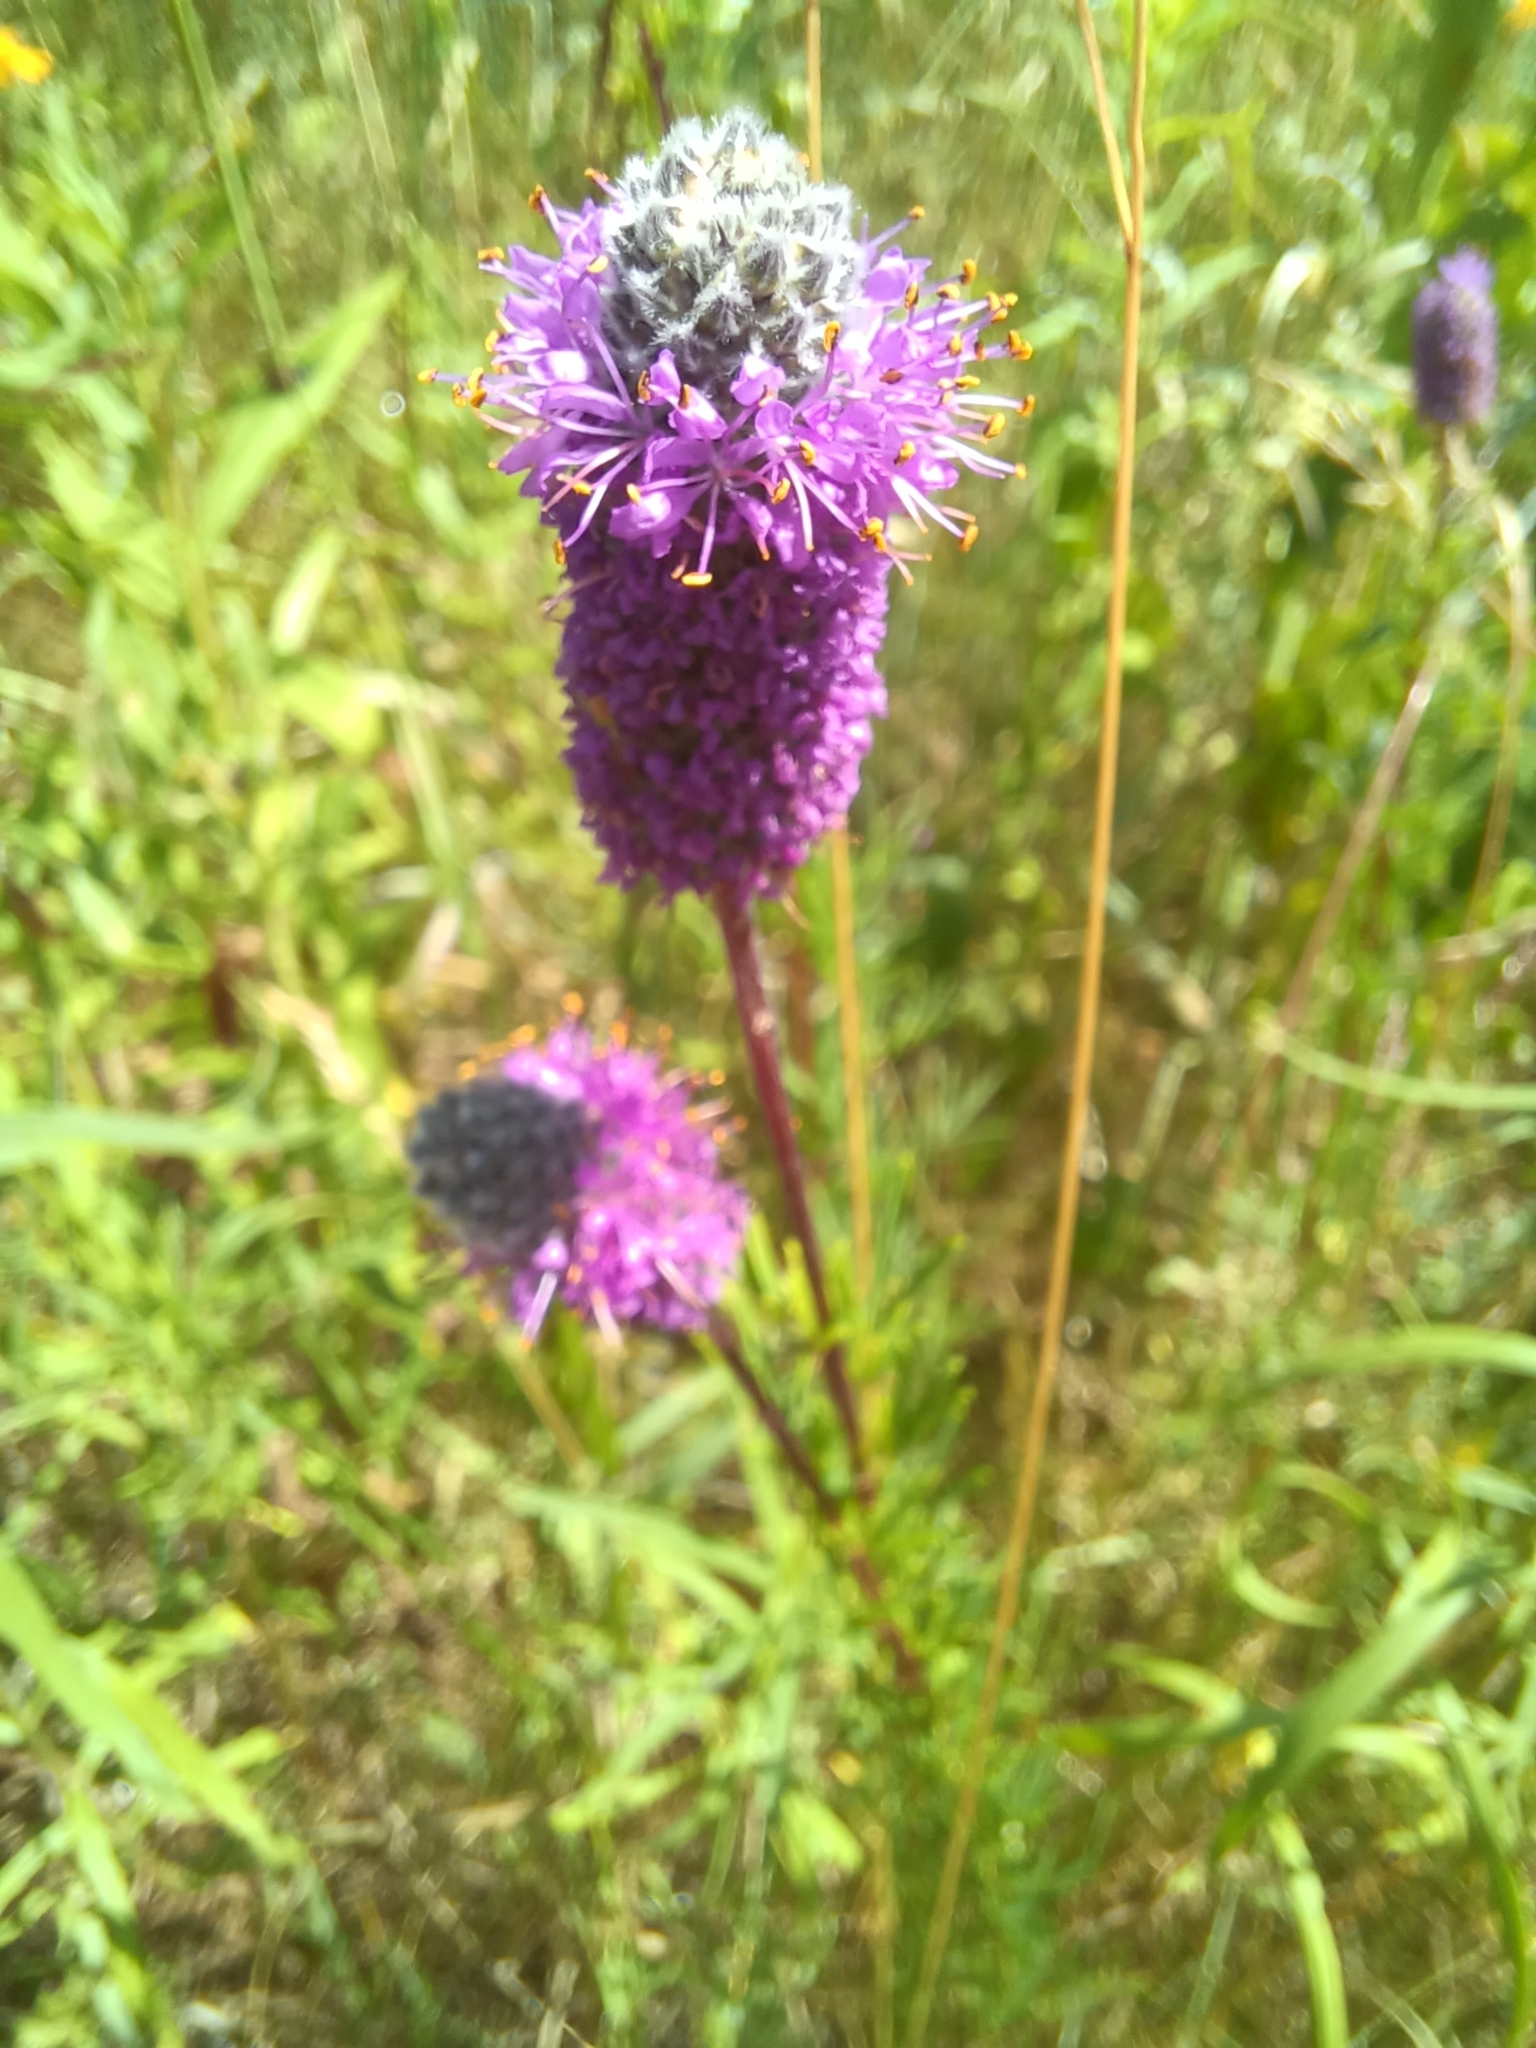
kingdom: Plantae
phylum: Tracheophyta
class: Magnoliopsida
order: Fabales
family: Fabaceae
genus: Dalea
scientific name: Dalea purpurea
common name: Purple prairie-clover
